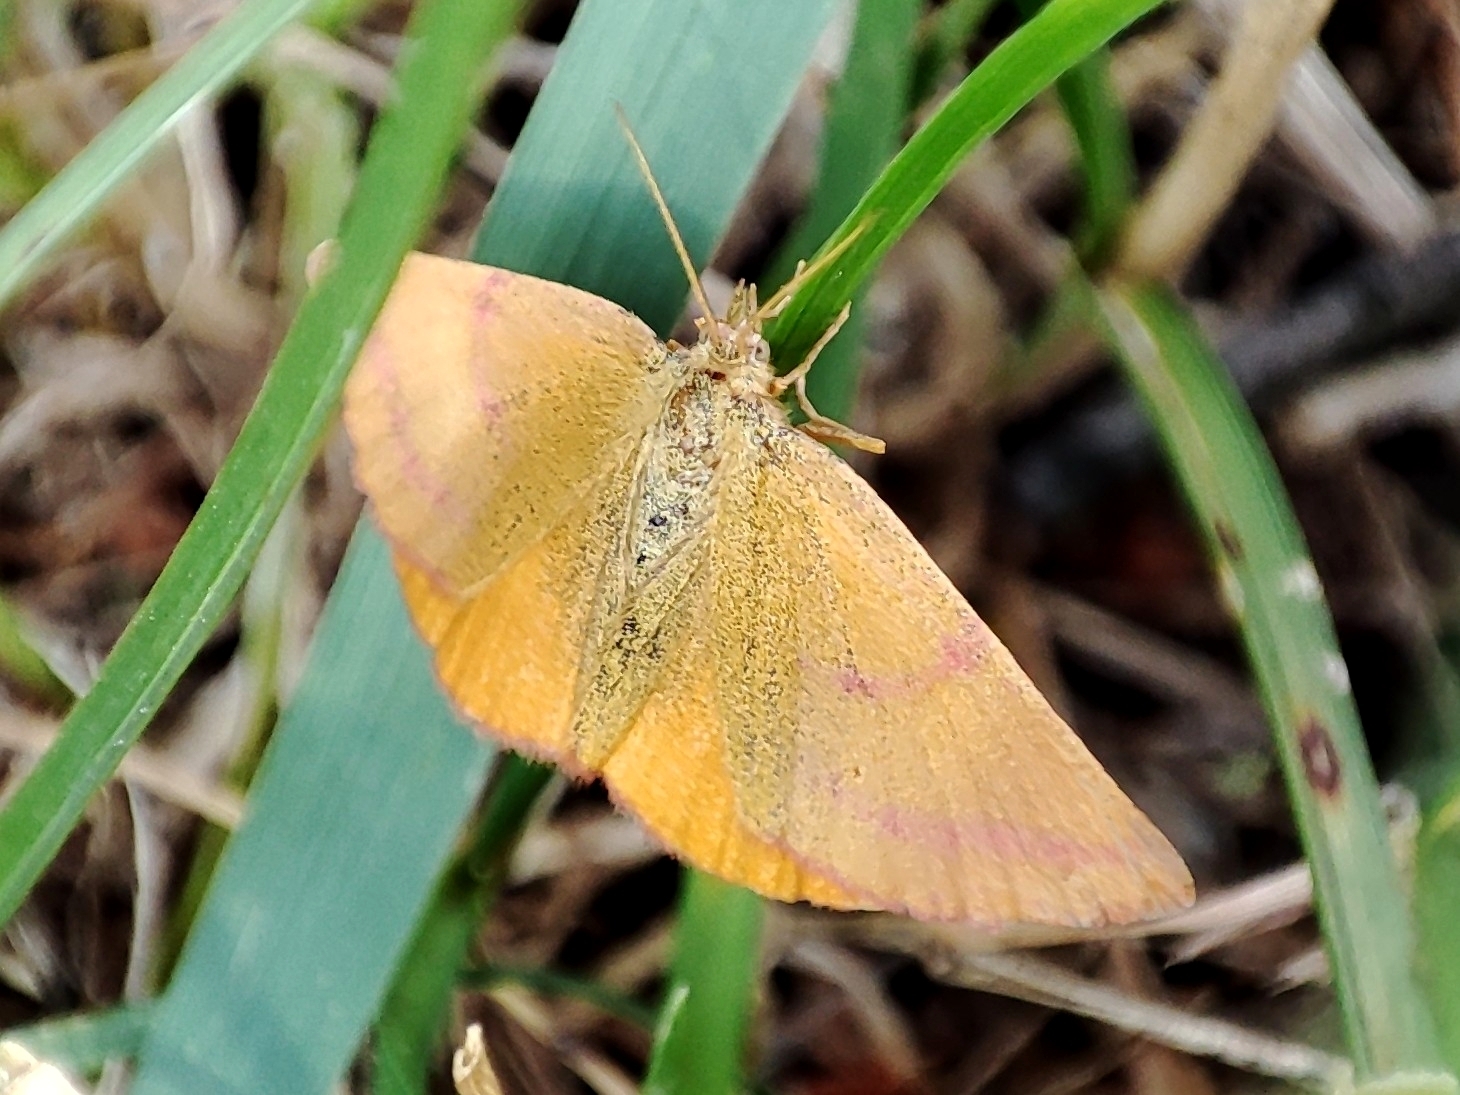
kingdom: Animalia
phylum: Arthropoda
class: Insecta
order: Lepidoptera
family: Geometridae
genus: Lythria
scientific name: Lythria purpuraria
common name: Purple-barred yellow
